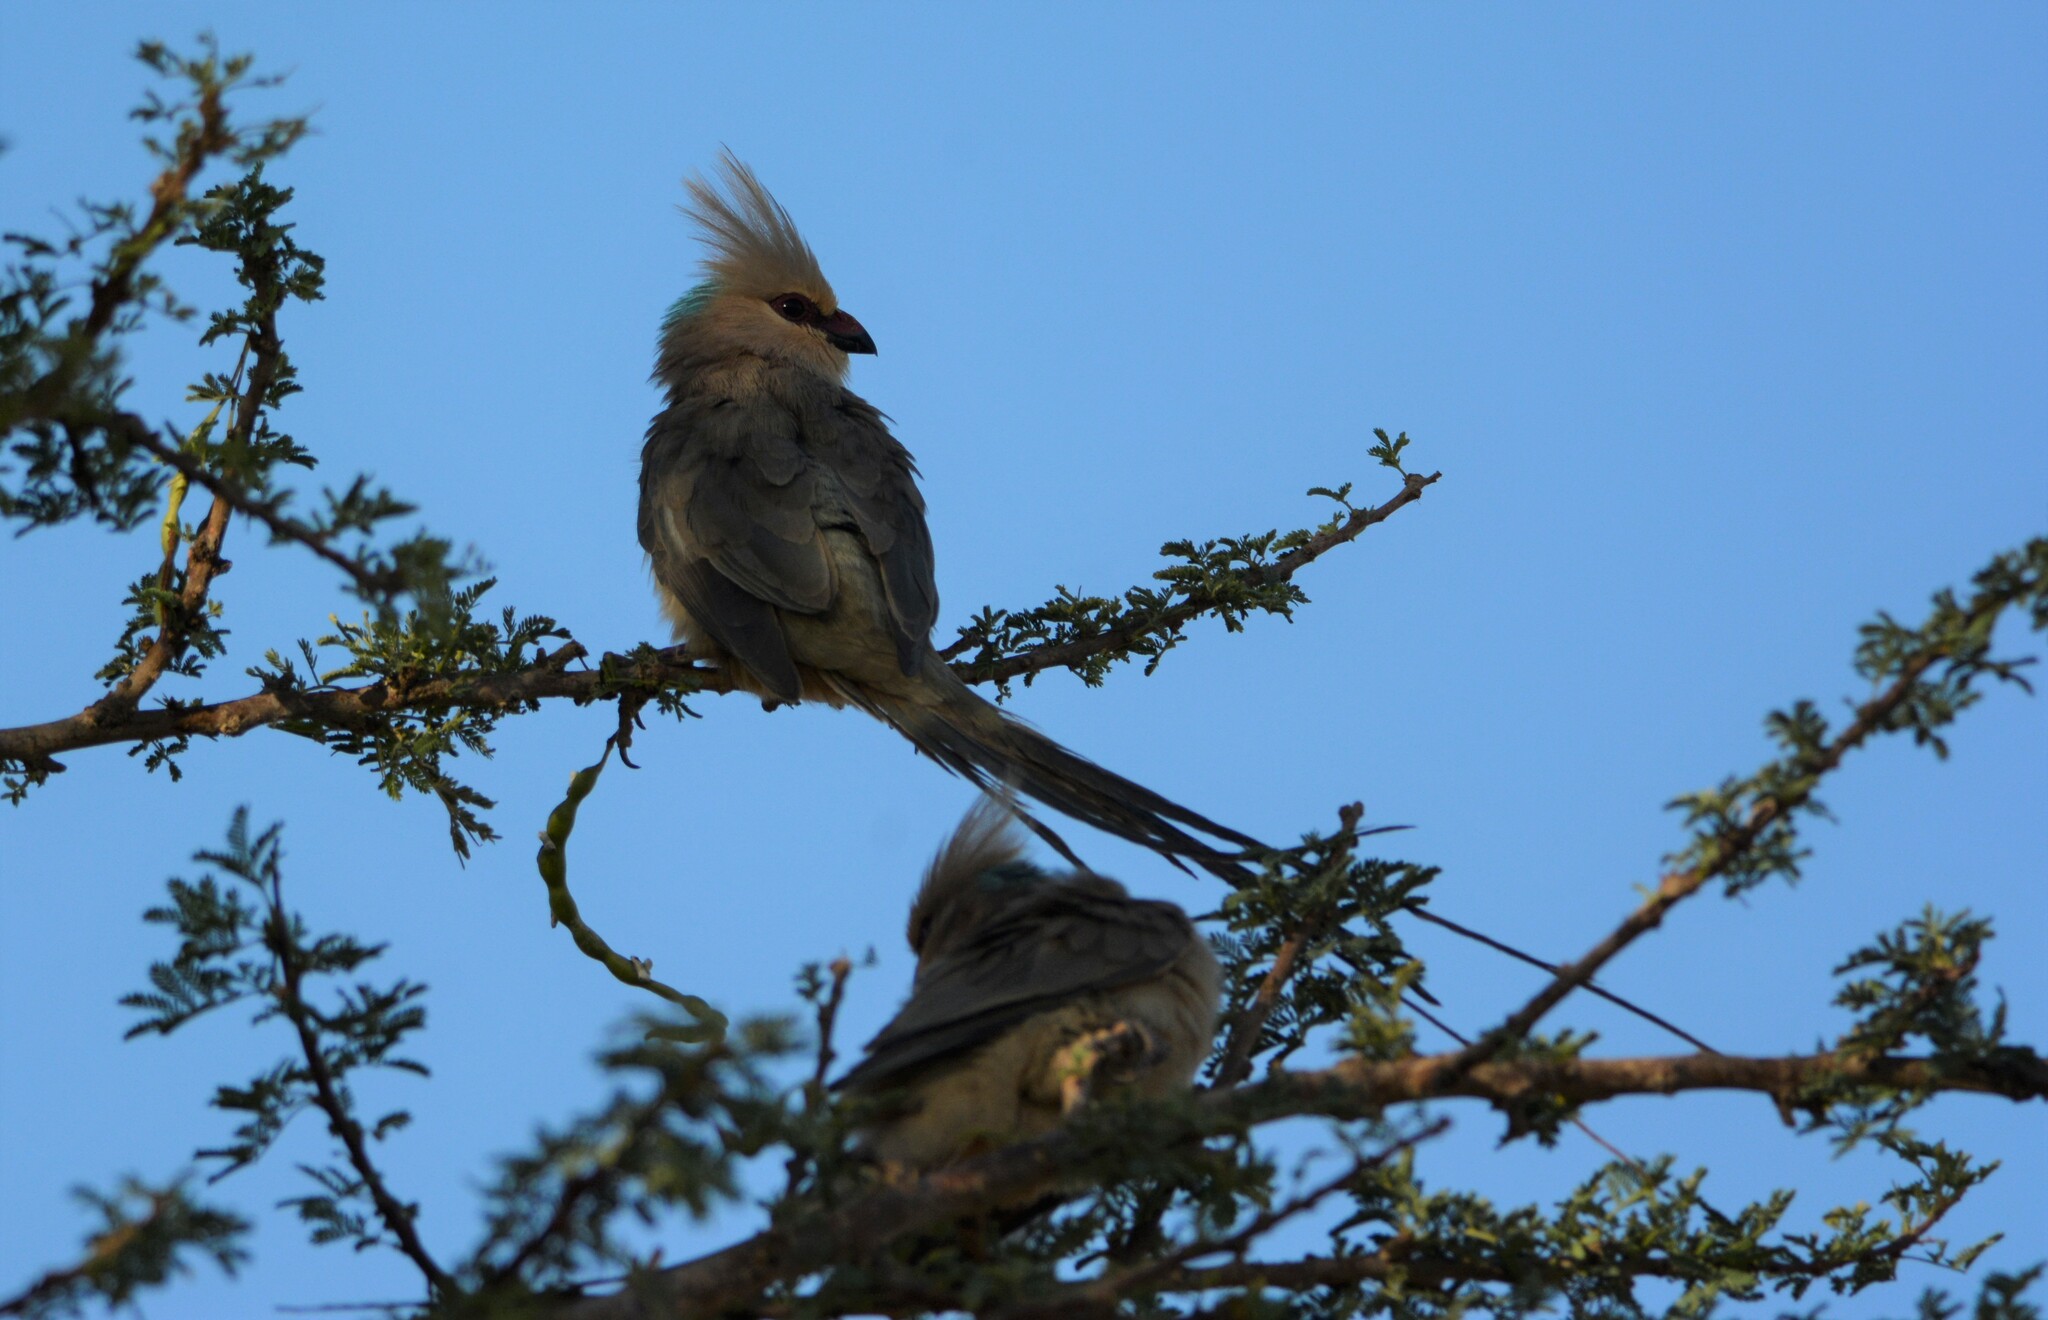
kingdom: Animalia
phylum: Chordata
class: Aves
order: Coliiformes
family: Coliidae
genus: Urocolius
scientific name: Urocolius macrourus
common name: Blue-naped mousebird
